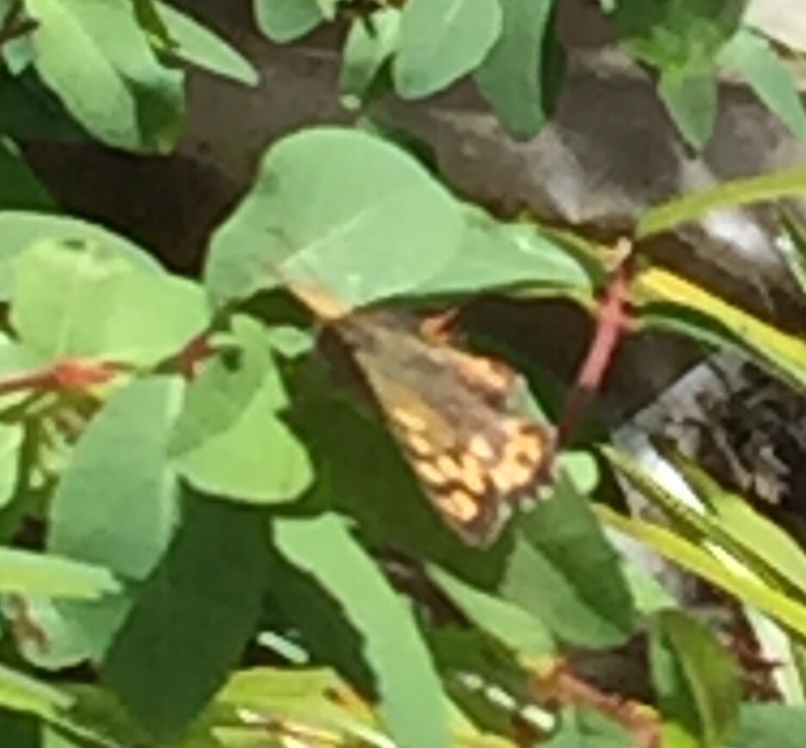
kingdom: Animalia
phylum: Arthropoda
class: Insecta
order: Lepidoptera
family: Nymphalidae
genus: Pararge
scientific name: Pararge aegeria
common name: Speckled wood
